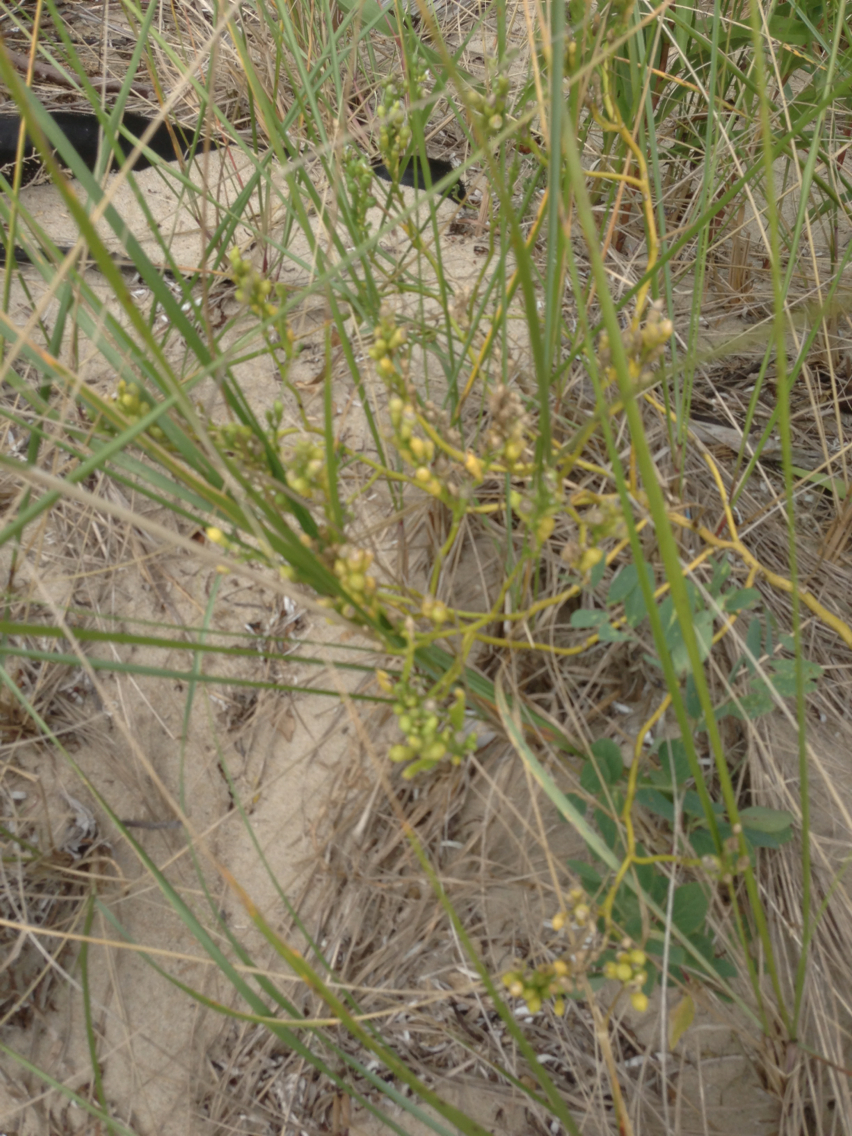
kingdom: Plantae
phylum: Tracheophyta
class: Magnoliopsida
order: Brassicales
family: Brassicaceae
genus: Cakile
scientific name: Cakile edentula
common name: American sea rocket
